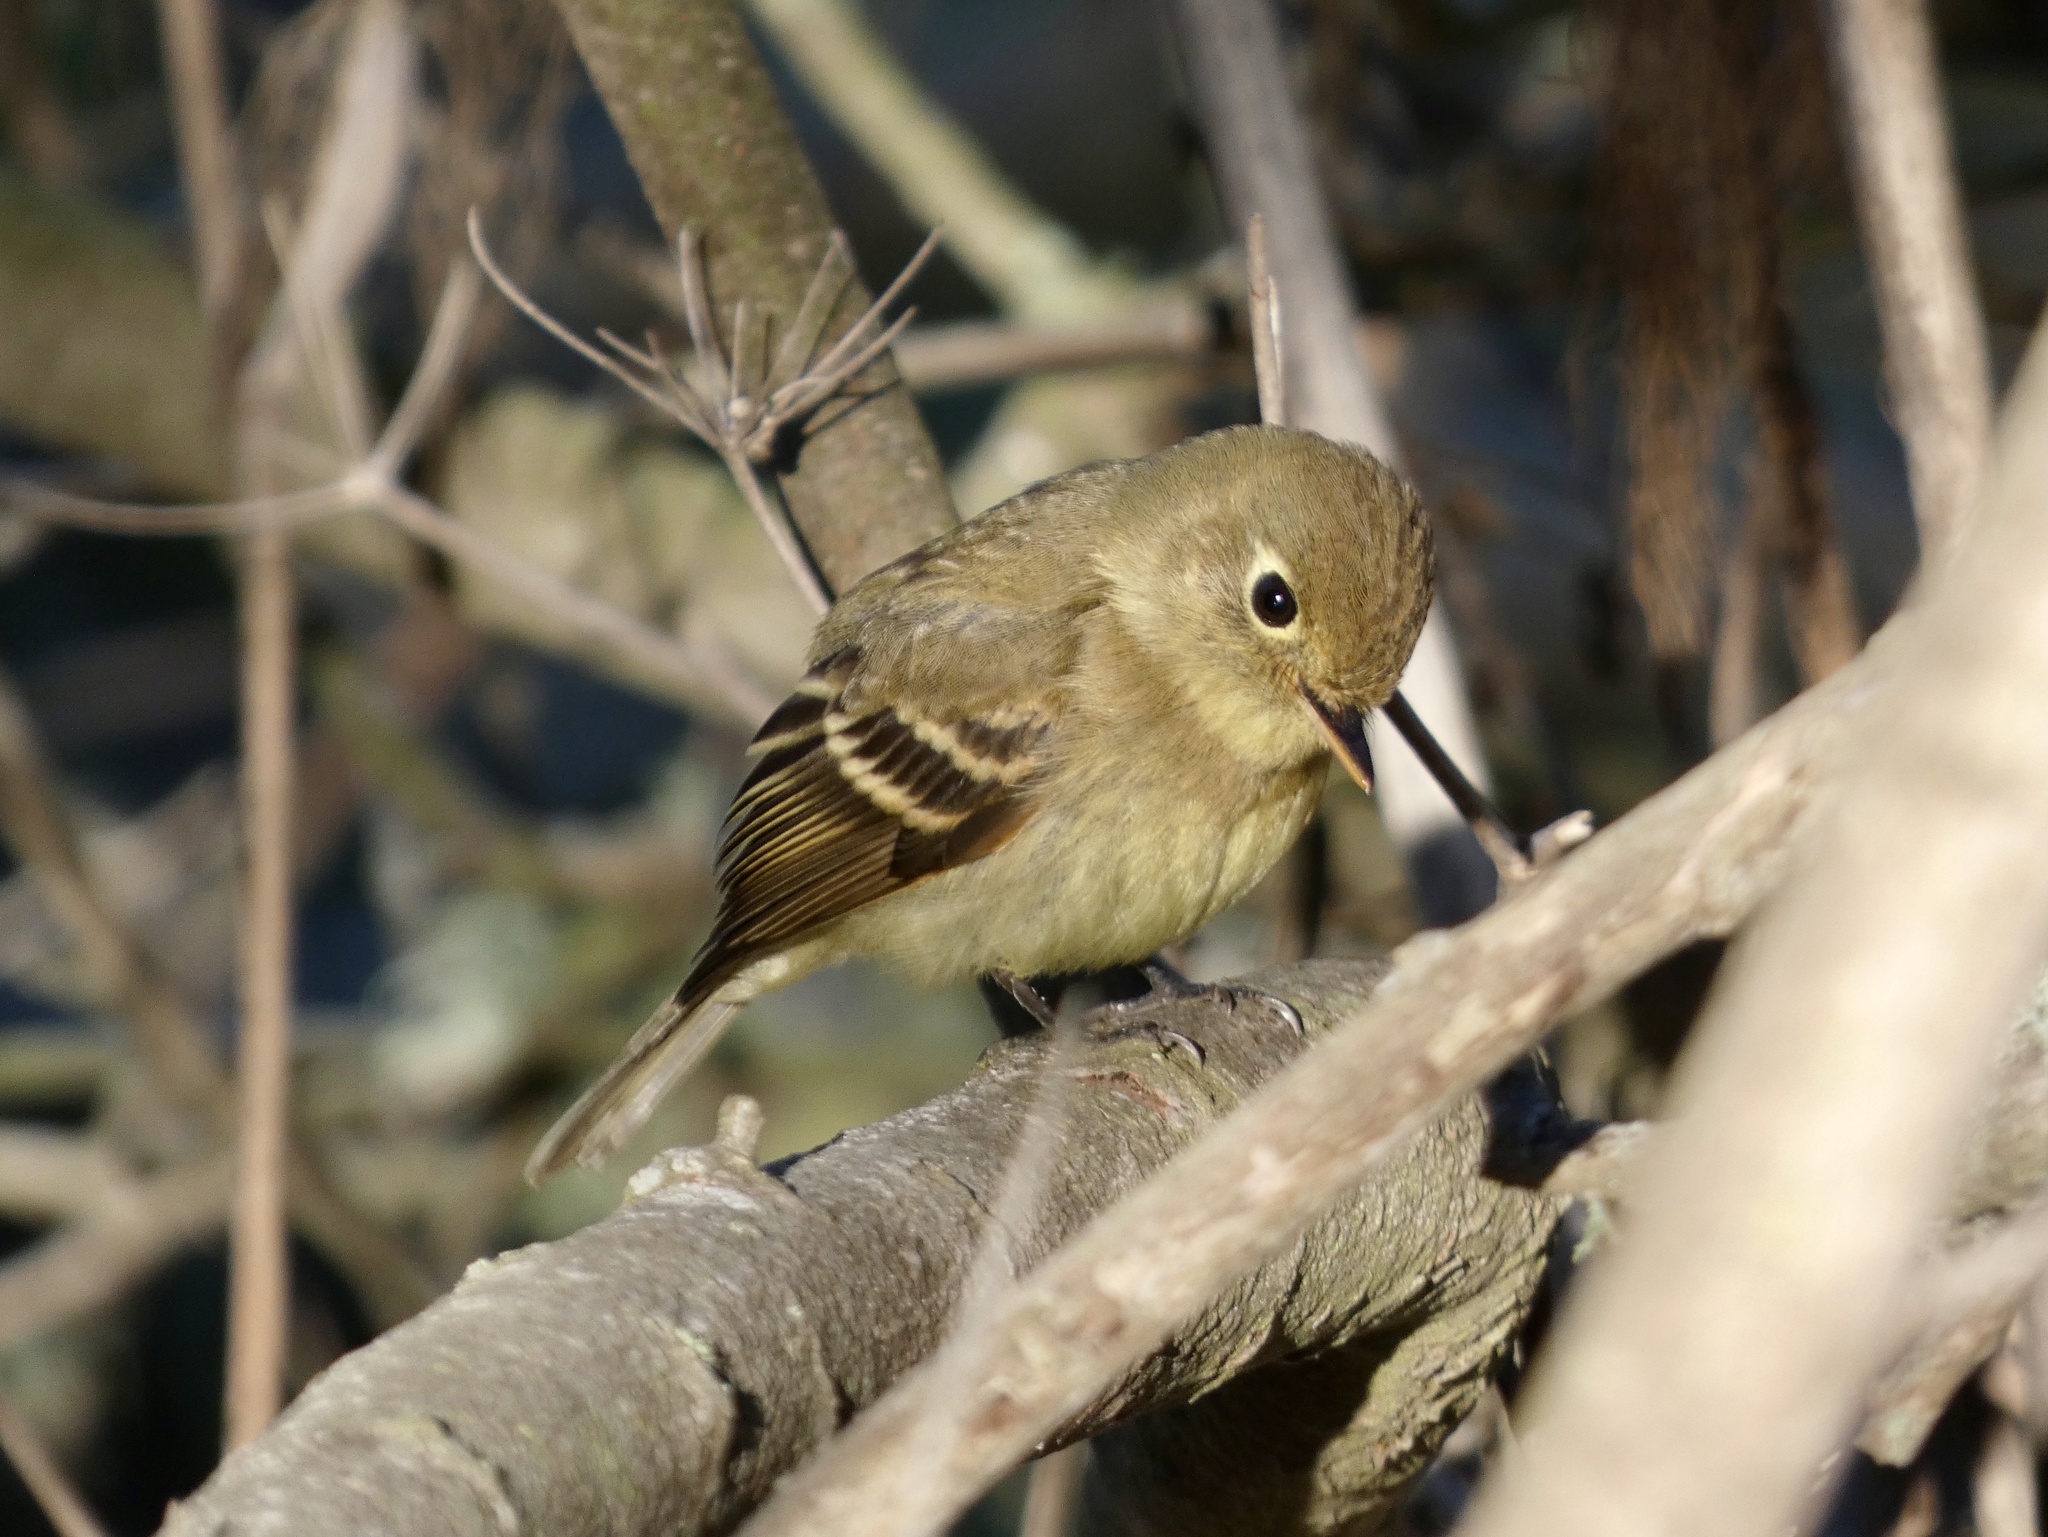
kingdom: Animalia
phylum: Chordata
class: Aves
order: Passeriformes
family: Tyrannidae
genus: Empidonax
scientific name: Empidonax difficilis
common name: Pacific-slope flycatcher
